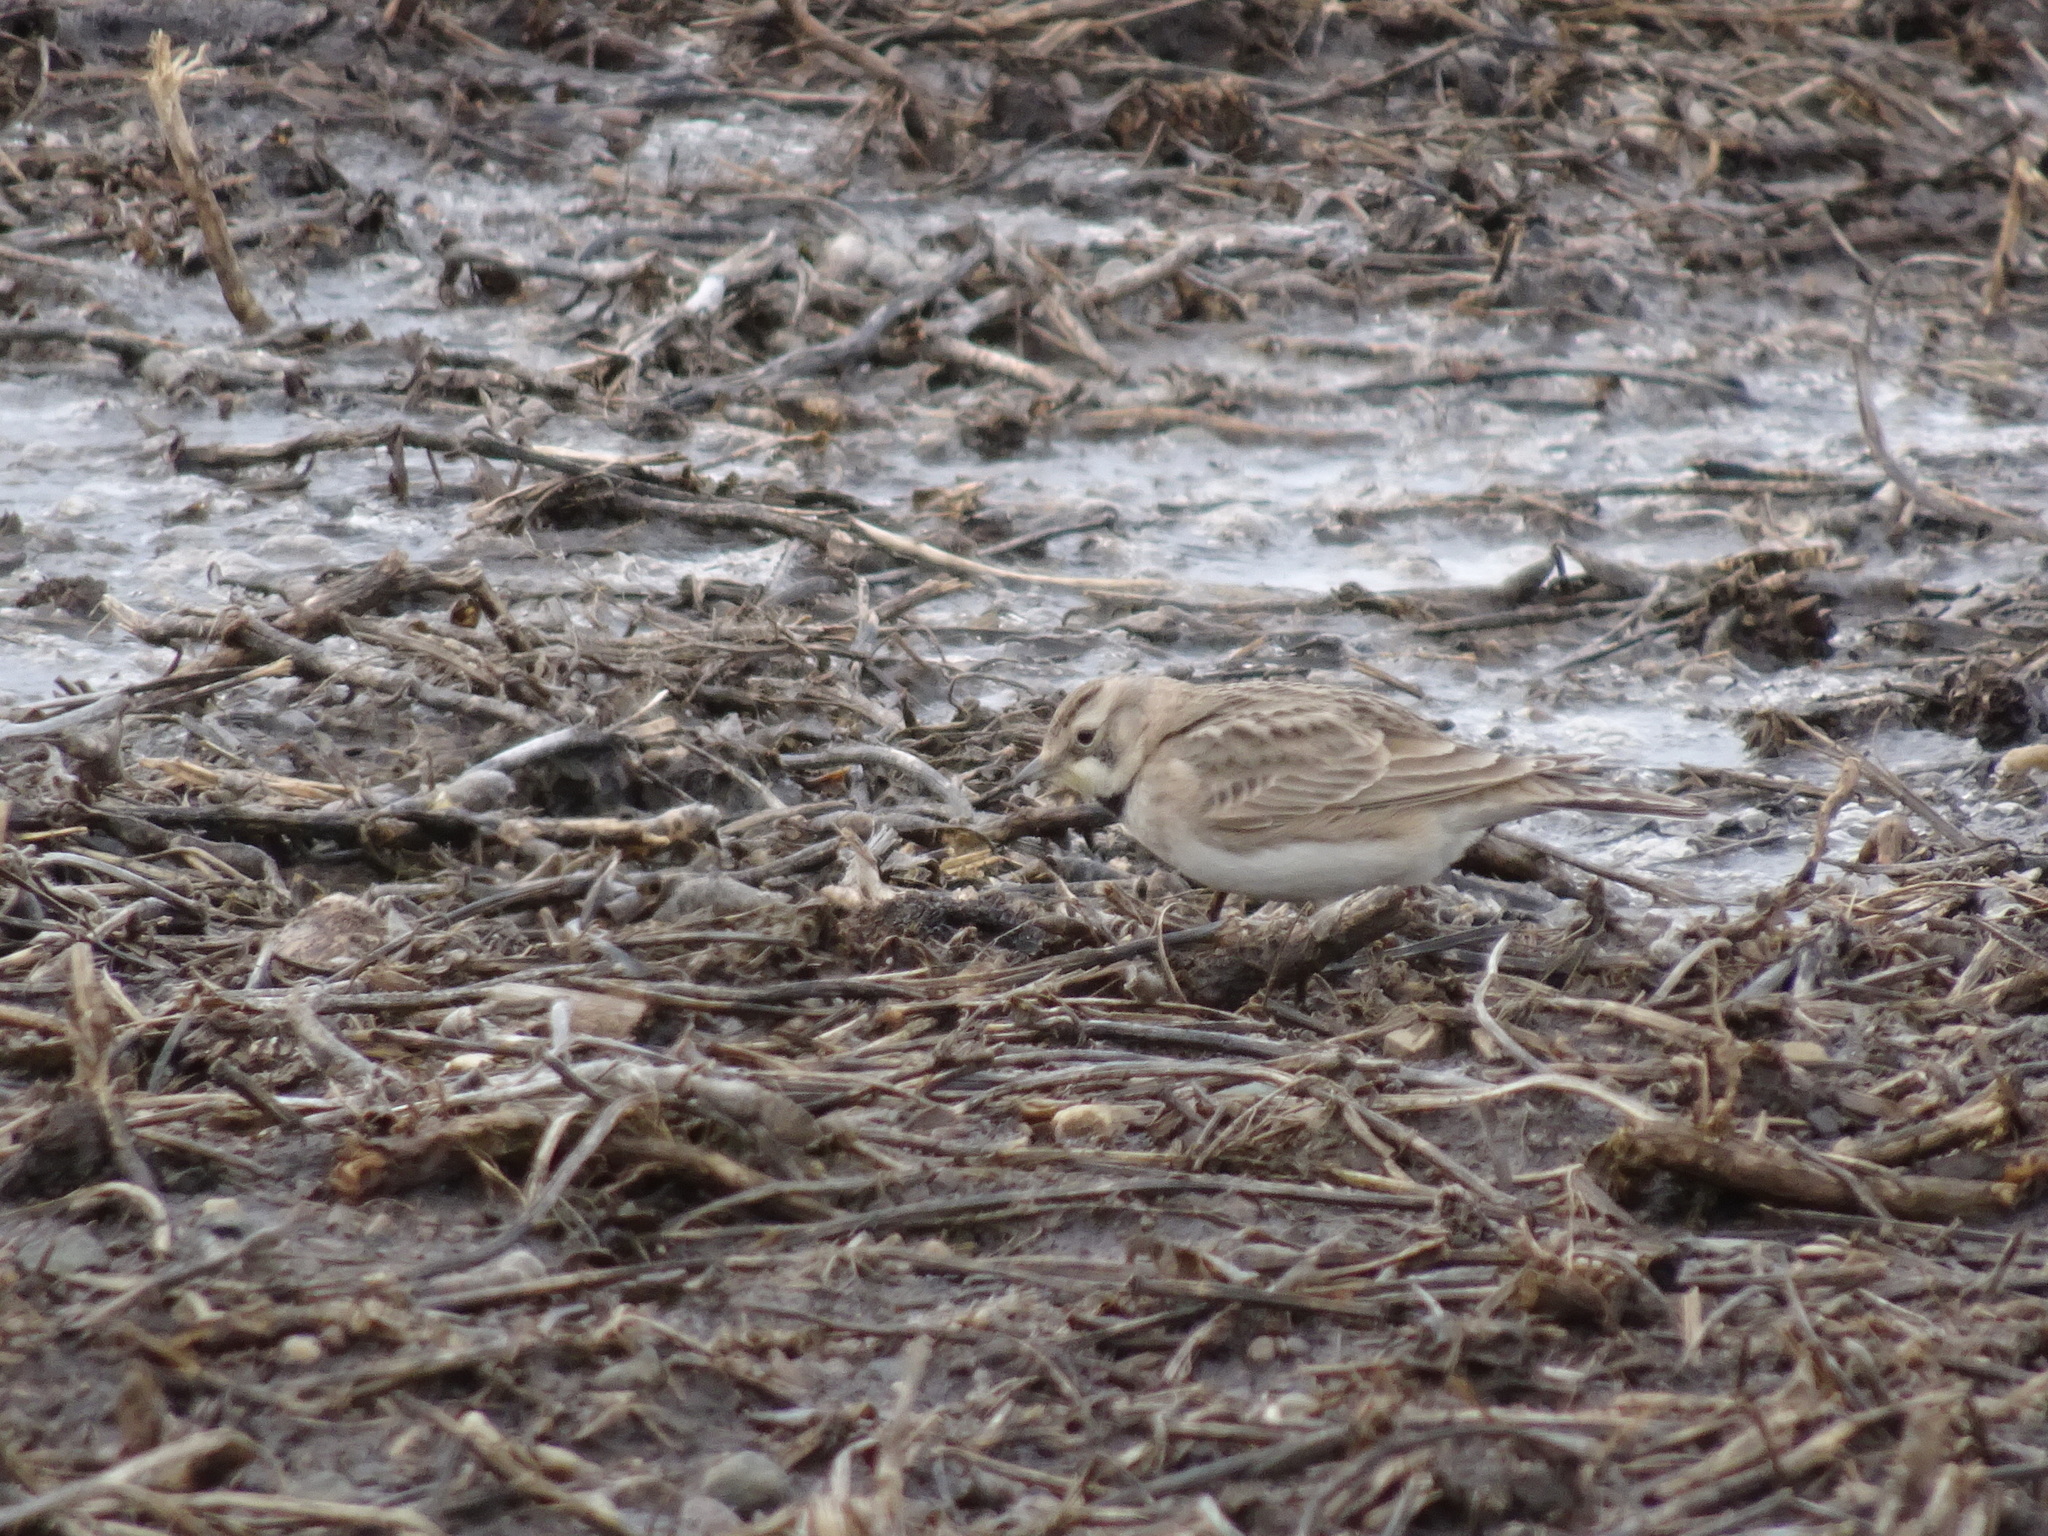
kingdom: Animalia
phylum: Chordata
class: Aves
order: Passeriformes
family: Alaudidae
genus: Eremophila
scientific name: Eremophila alpestris
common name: Horned lark
